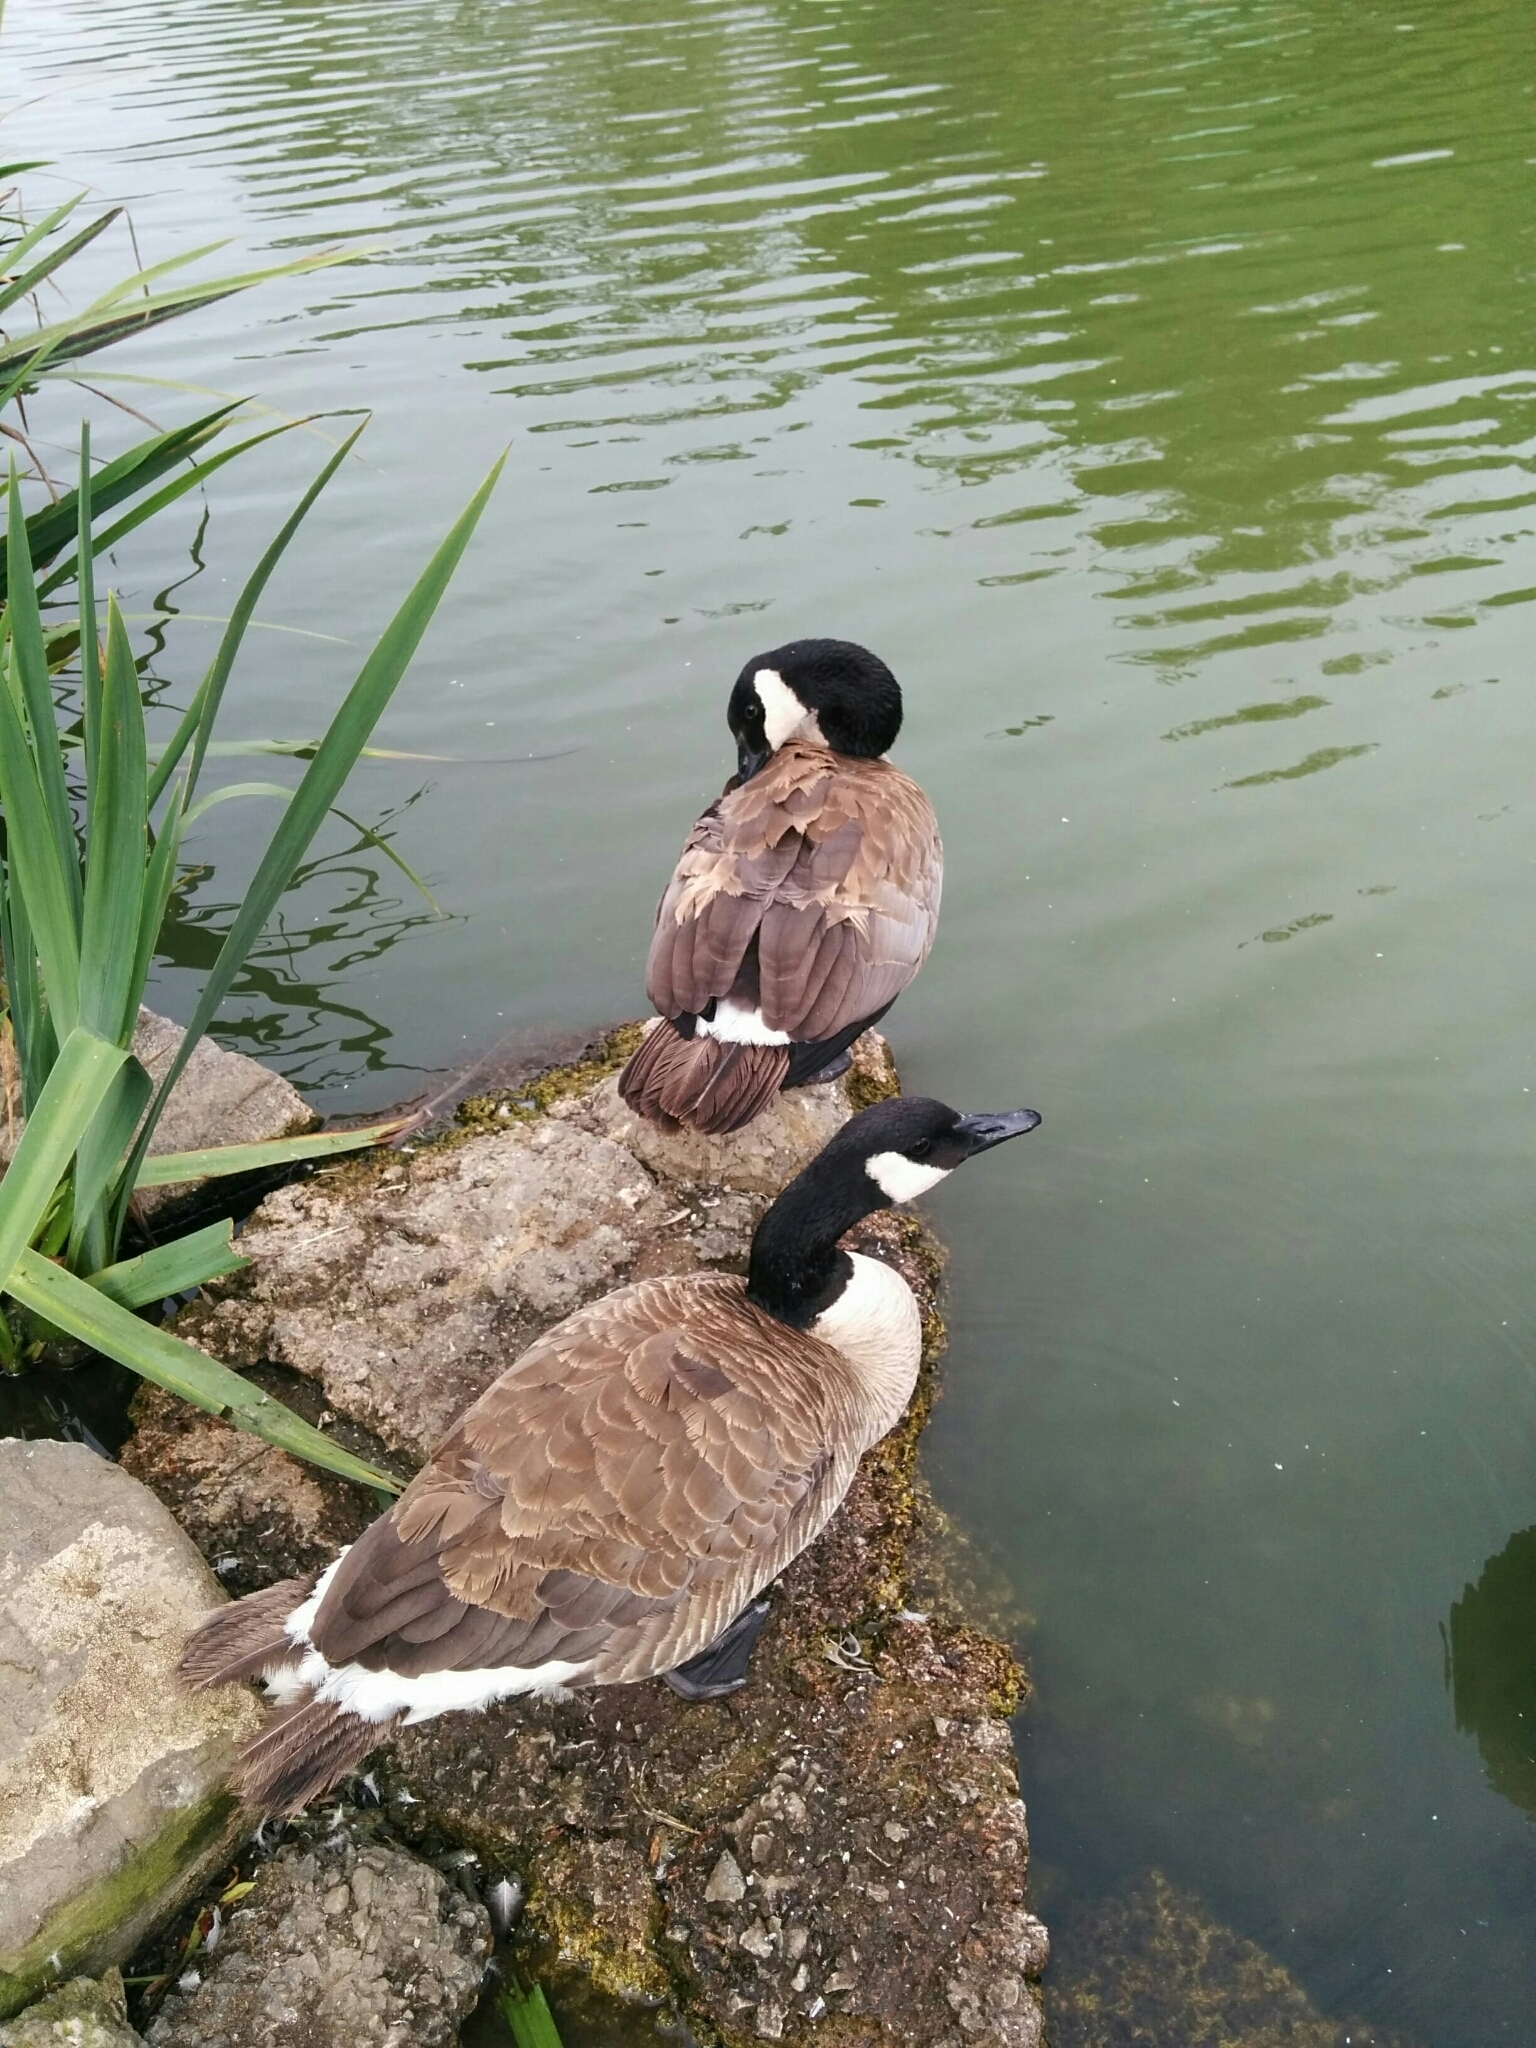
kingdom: Animalia
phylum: Chordata
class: Aves
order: Anseriformes
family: Anatidae
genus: Branta
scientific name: Branta canadensis
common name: Canada goose
